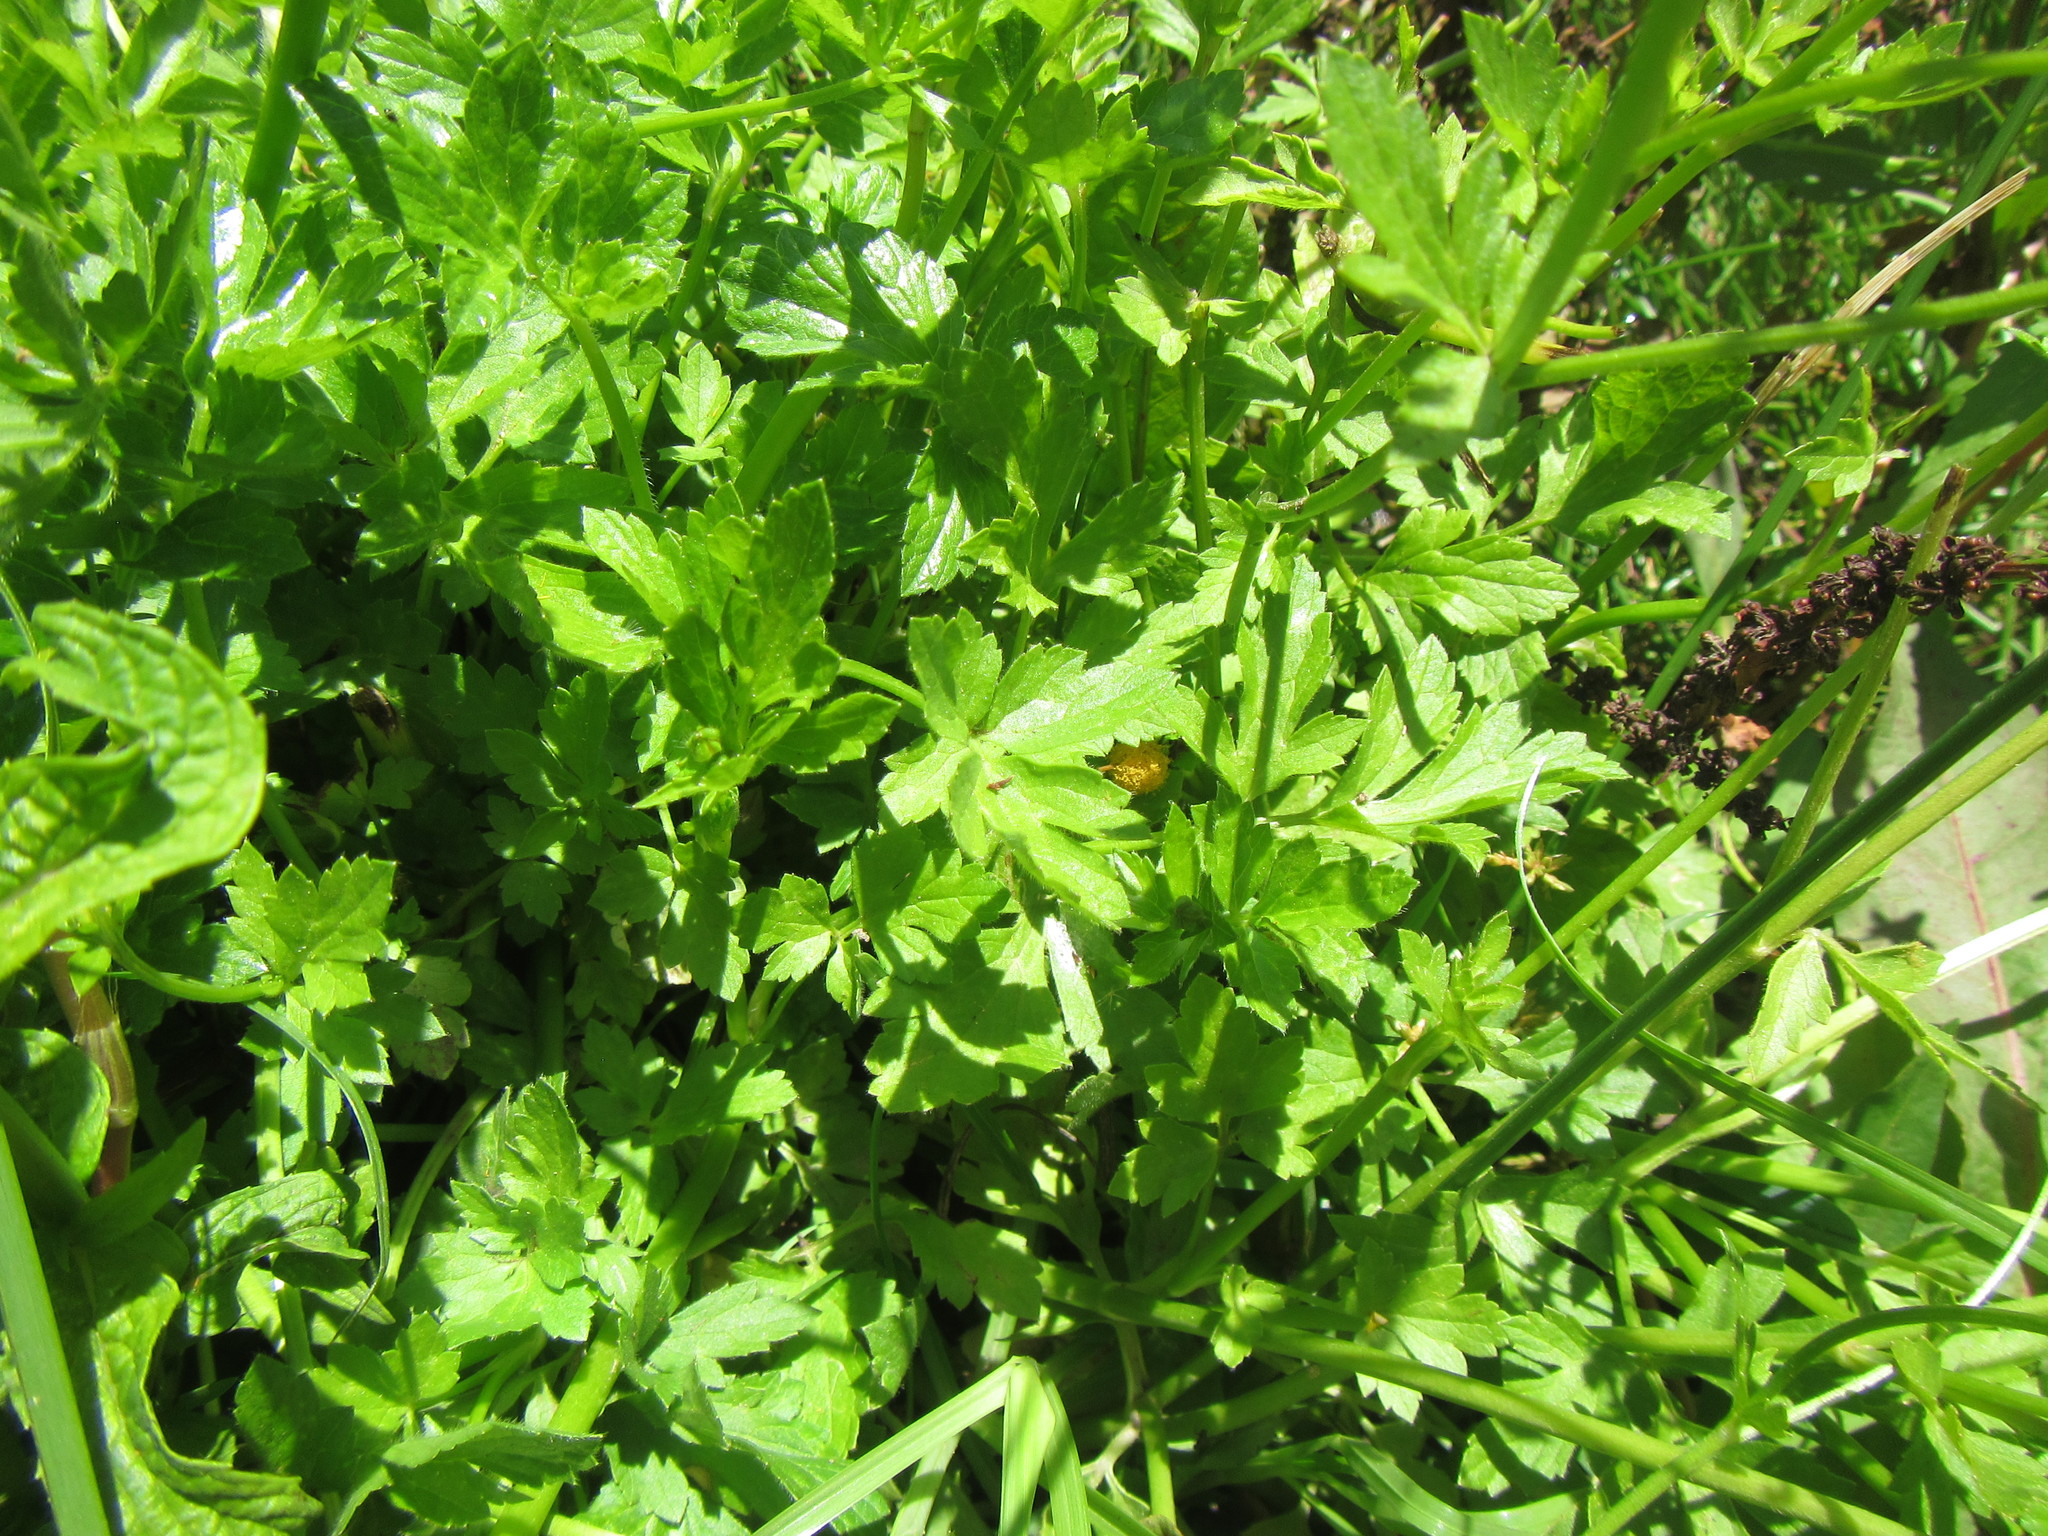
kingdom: Plantae
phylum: Tracheophyta
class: Magnoliopsida
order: Ranunculales
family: Ranunculaceae
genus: Ranunculus
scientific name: Ranunculus multifidus
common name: Wild buttercup
